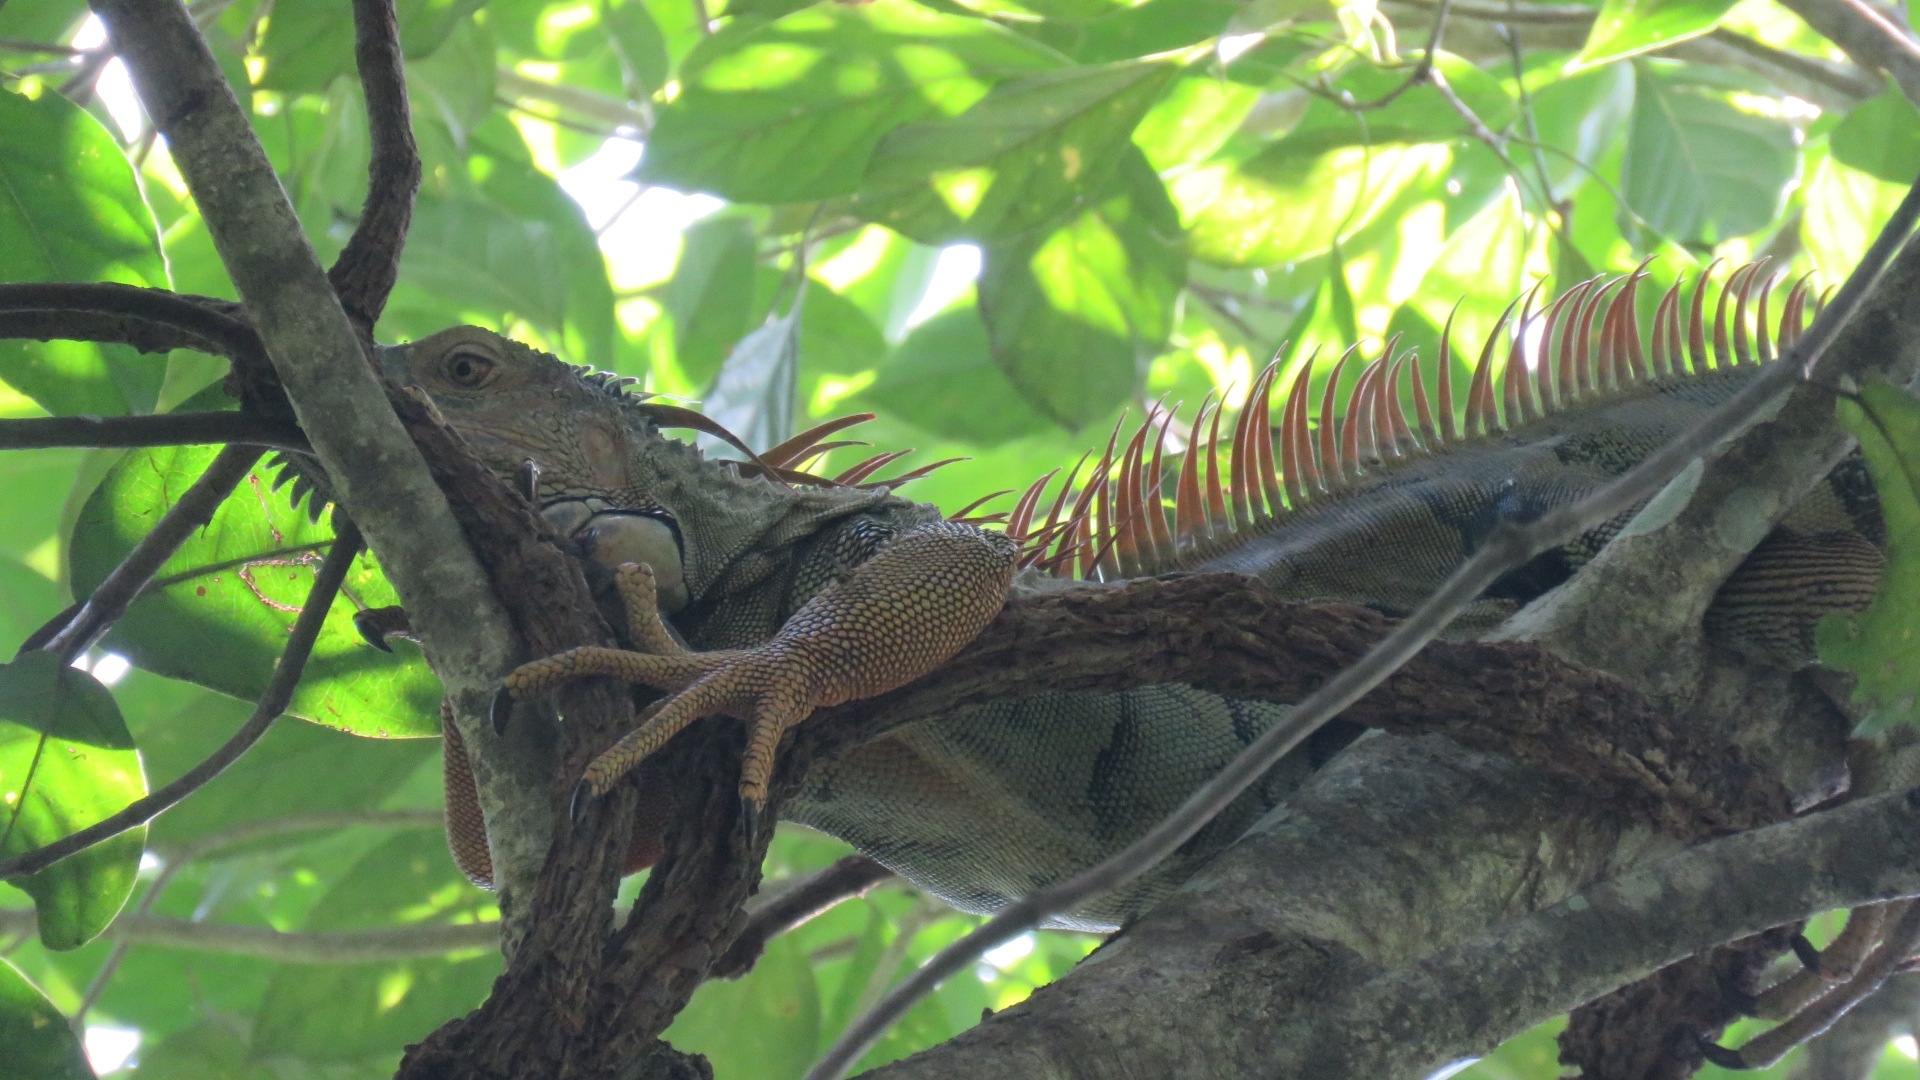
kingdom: Animalia
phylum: Chordata
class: Squamata
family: Iguanidae
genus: Iguana
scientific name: Iguana iguana
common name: Green iguana
